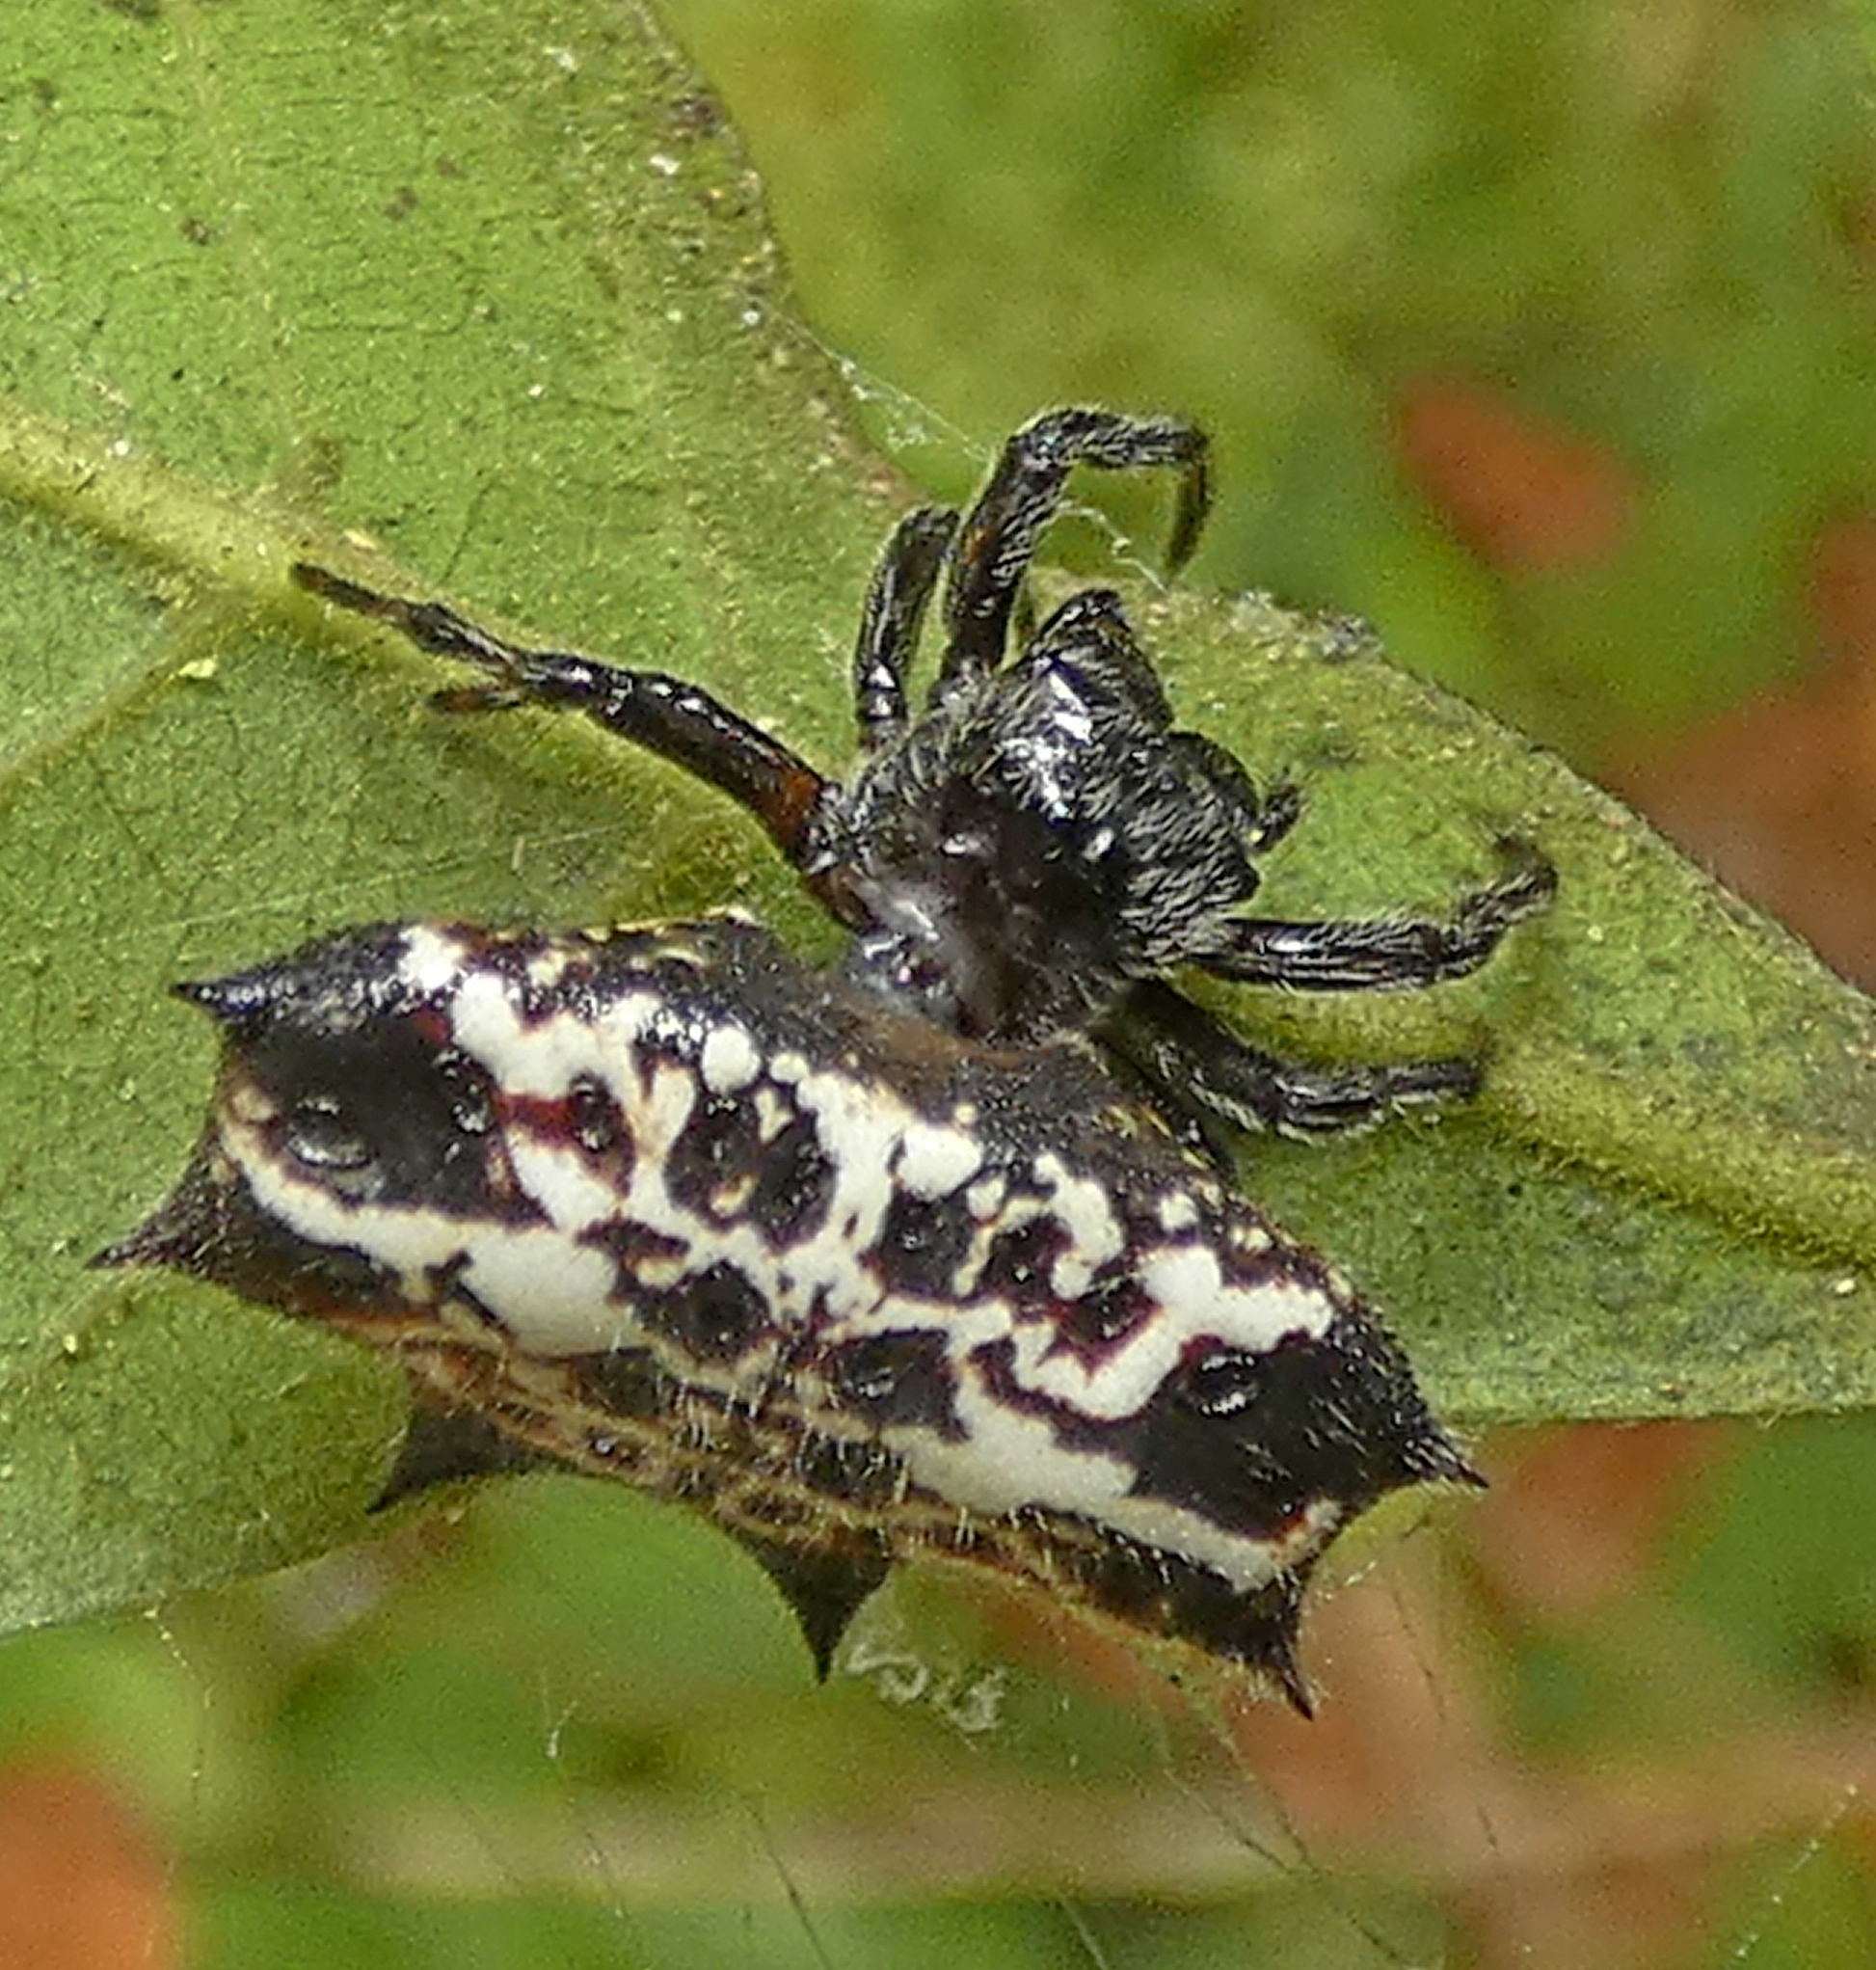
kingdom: Animalia
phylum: Arthropoda
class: Arachnida
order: Araneae
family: Araneidae
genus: Gasteracantha
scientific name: Gasteracantha cancriformis
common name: Orb weavers
